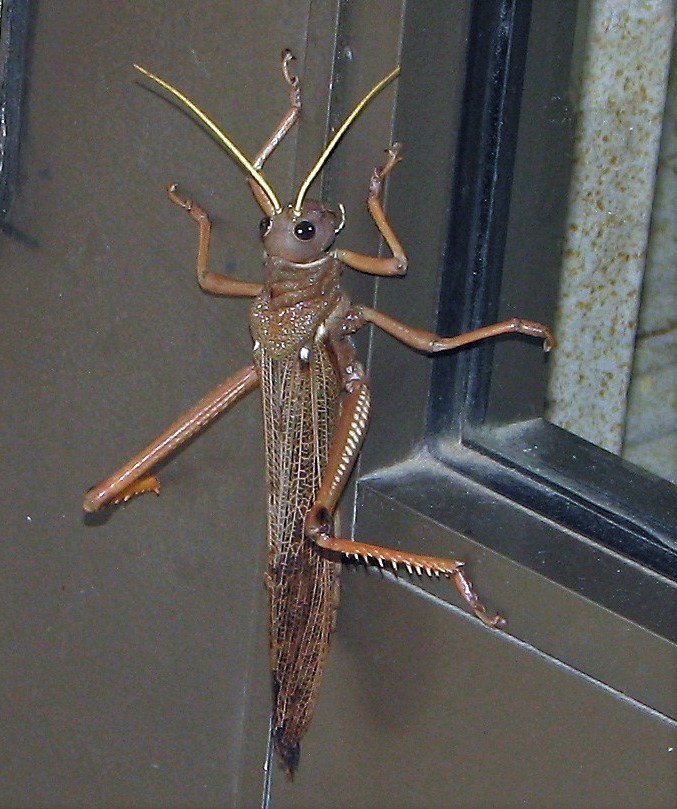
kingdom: Animalia
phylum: Arthropoda
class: Insecta
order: Orthoptera
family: Romaleidae
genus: Tropidacris
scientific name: Tropidacris collaris
